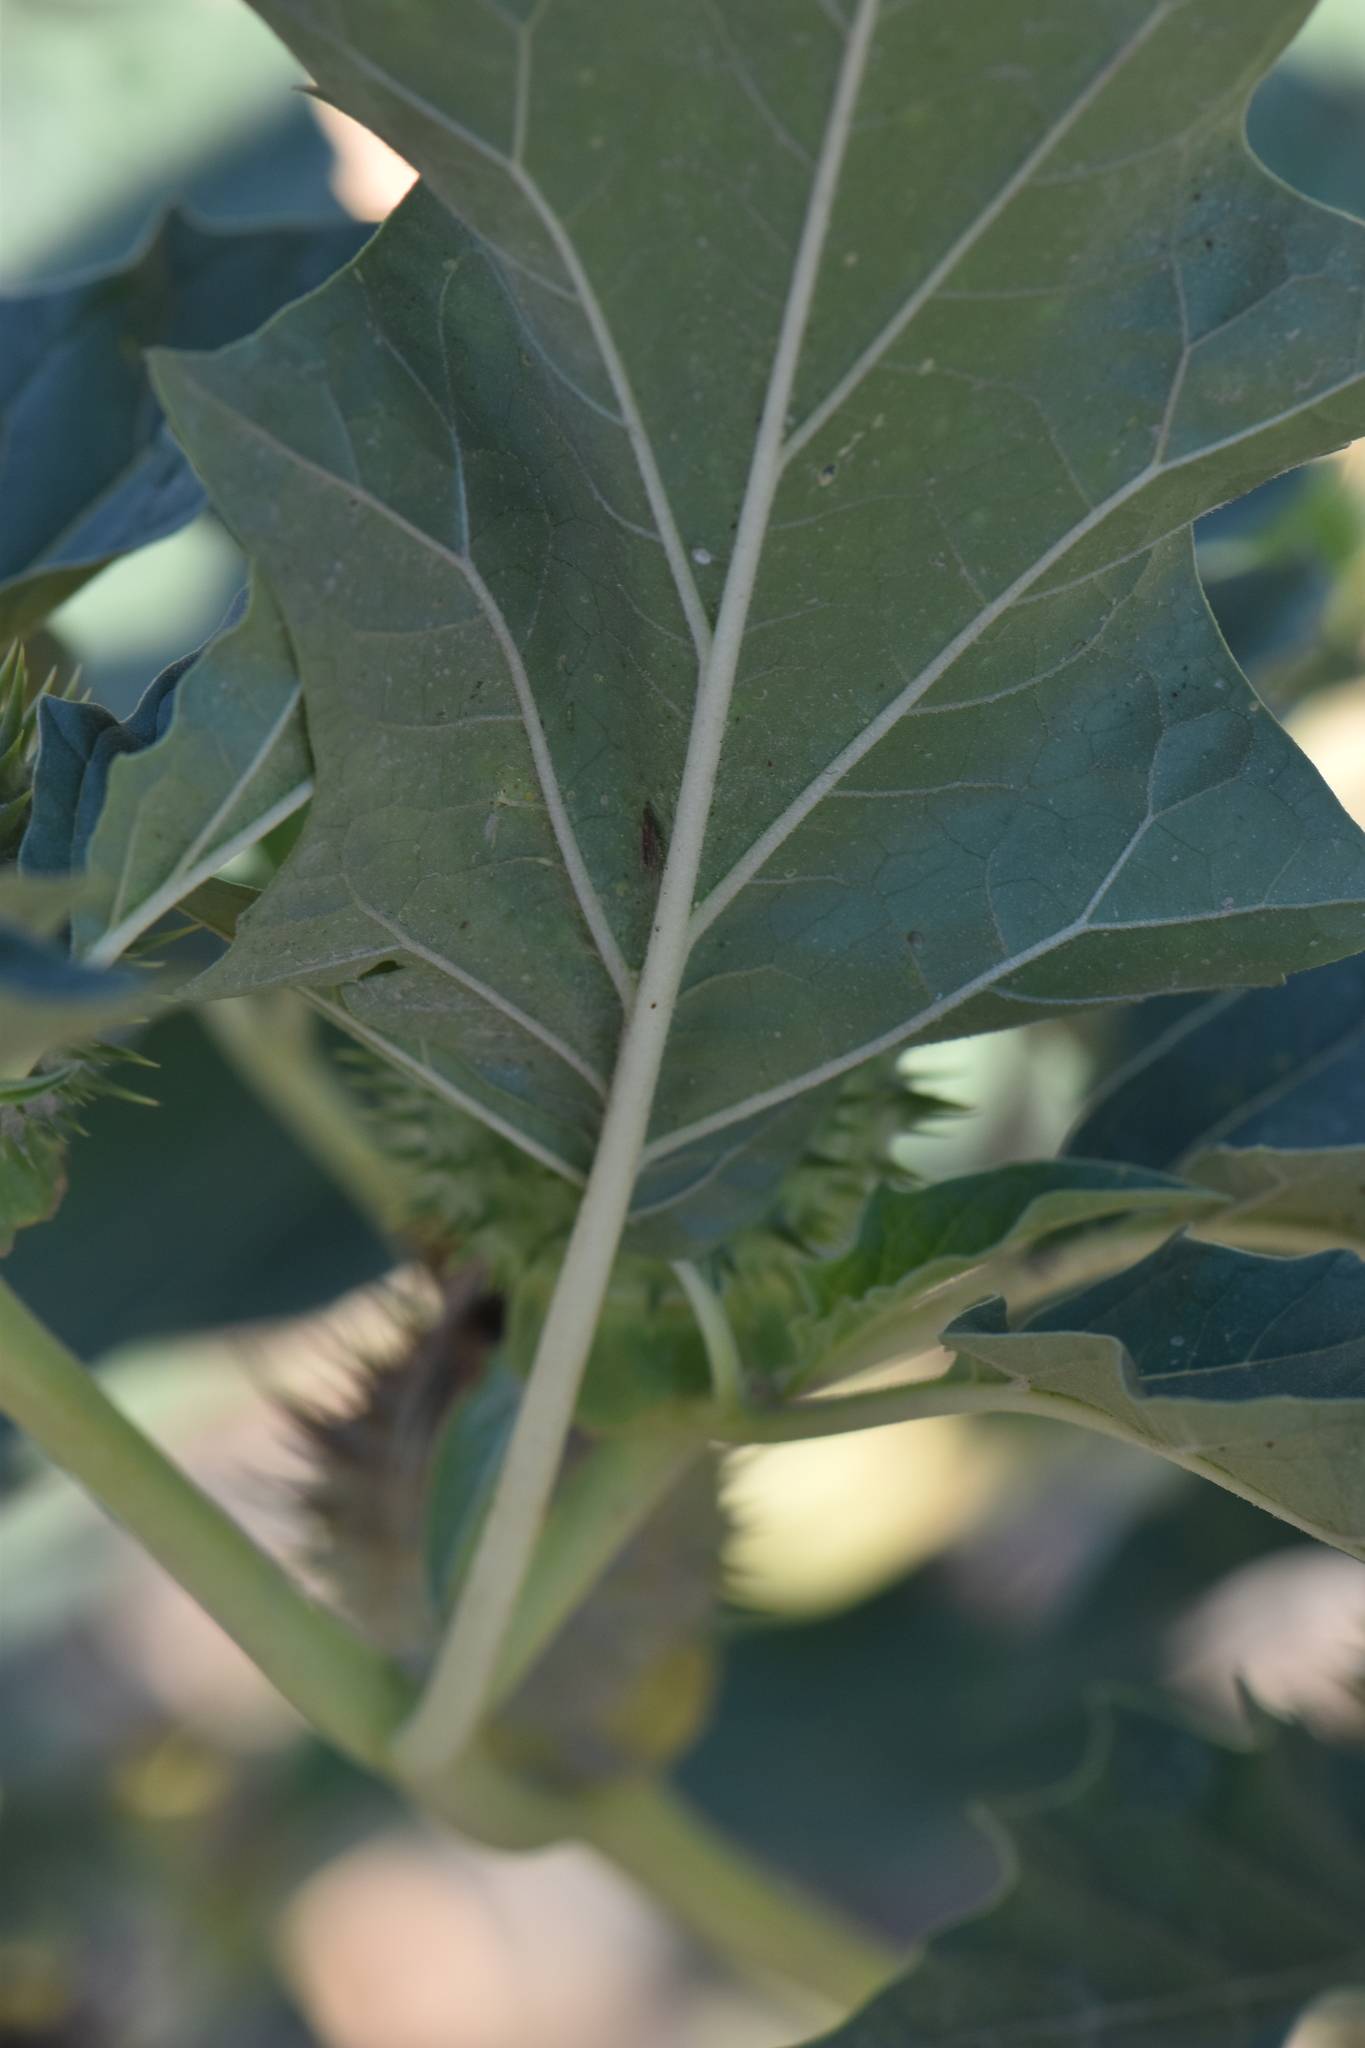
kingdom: Plantae
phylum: Tracheophyta
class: Magnoliopsida
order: Solanales
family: Solanaceae
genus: Datura
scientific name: Datura stramonium
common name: Thorn-apple
